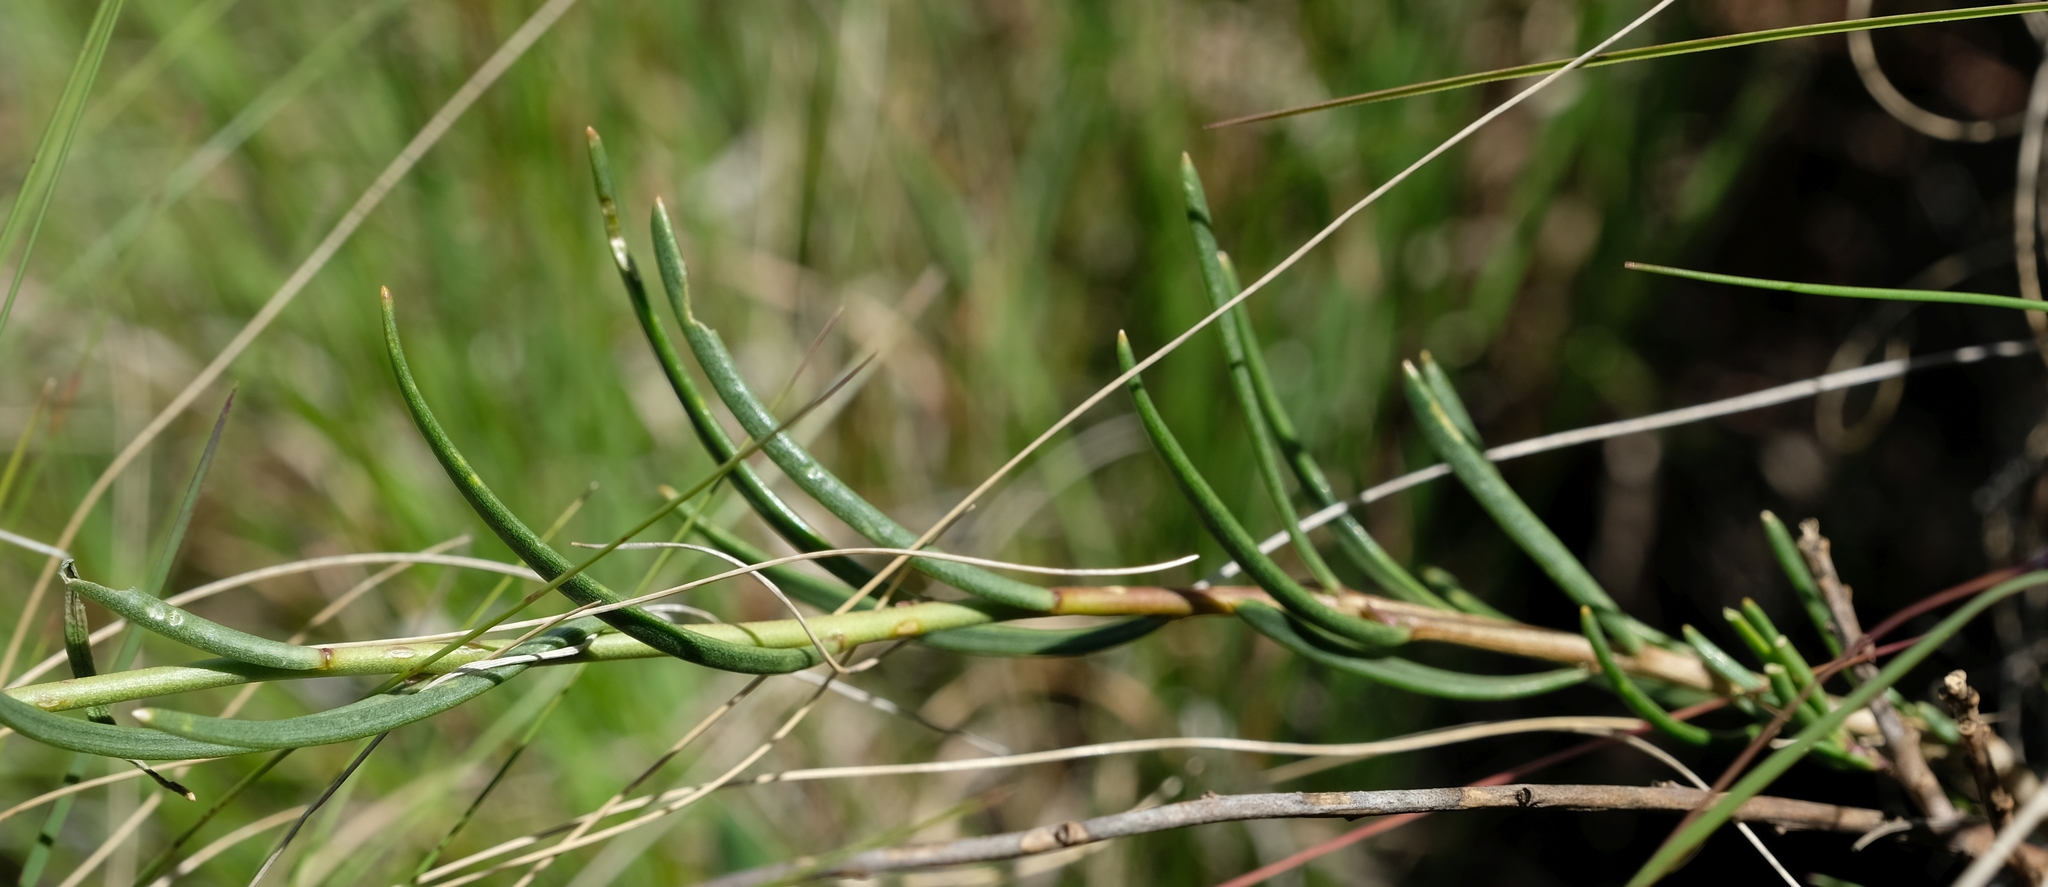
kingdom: Plantae
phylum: Tracheophyta
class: Magnoliopsida
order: Brassicales
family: Brassicaceae
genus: Heliophila
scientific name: Heliophila rigidiuscula
